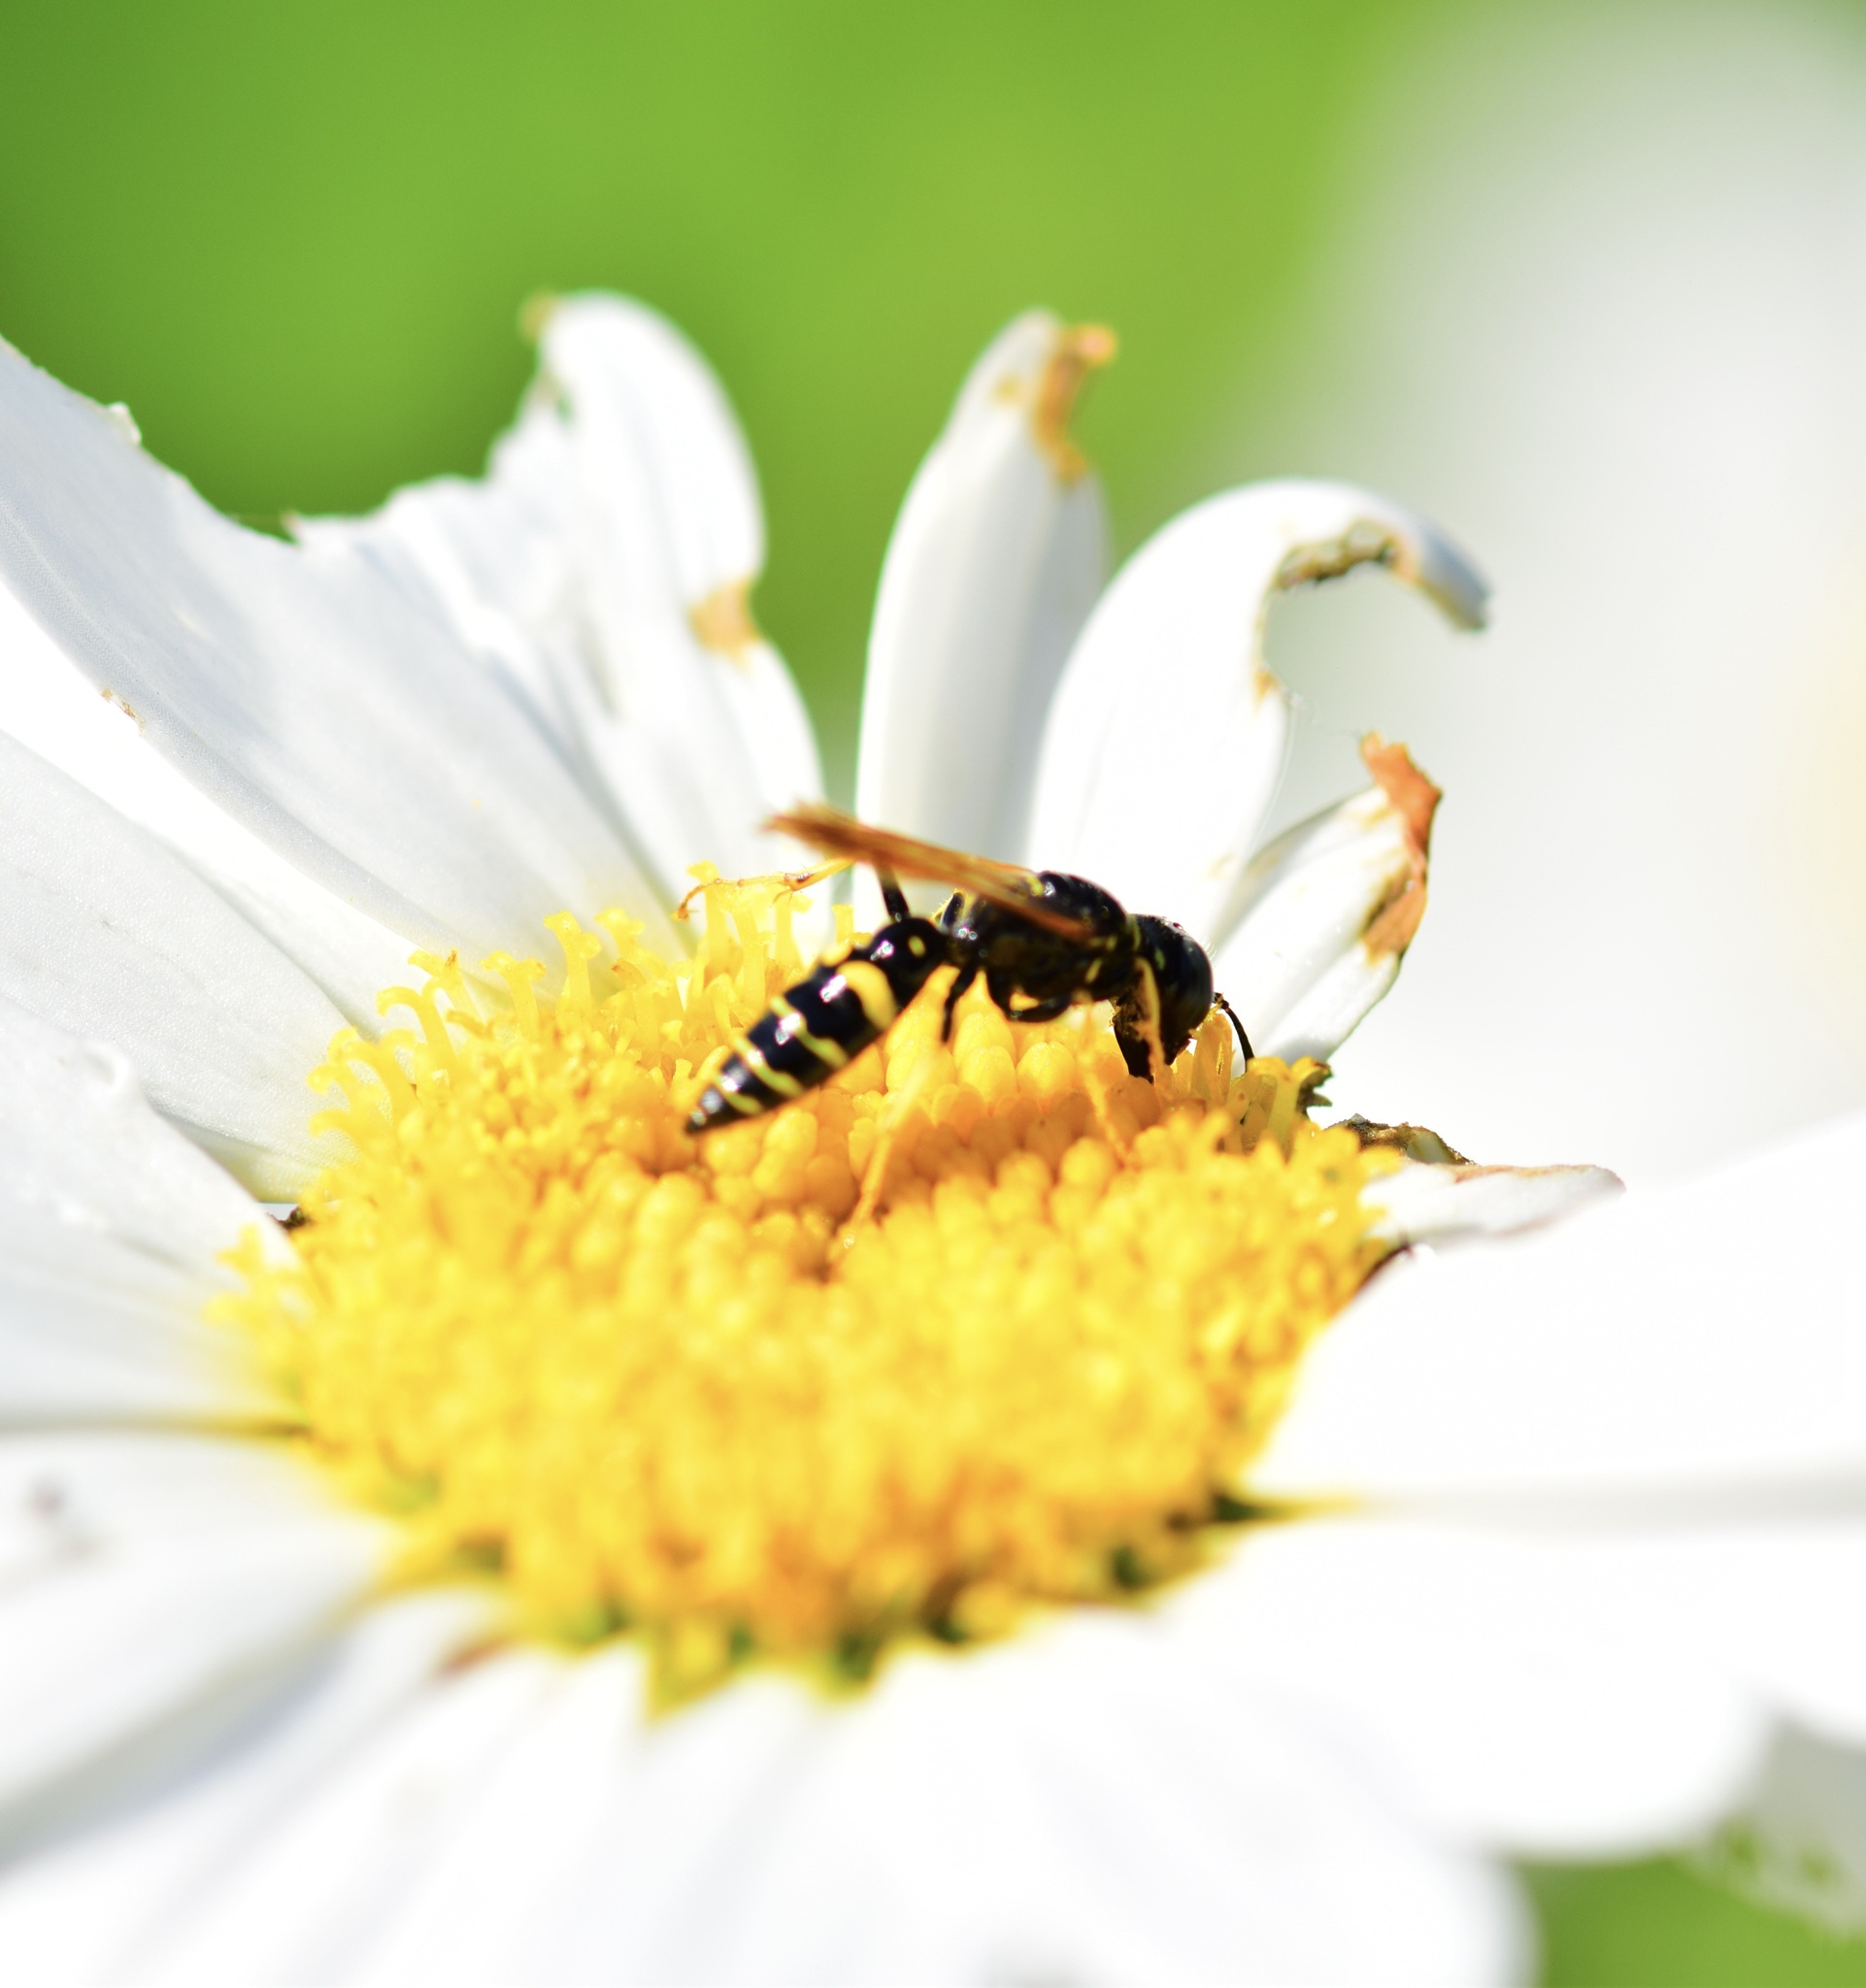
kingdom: Animalia
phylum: Arthropoda
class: Insecta
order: Hymenoptera
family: Crabronidae
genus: Philanthus
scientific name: Philanthus bilunatus
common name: Two moons beewolf
